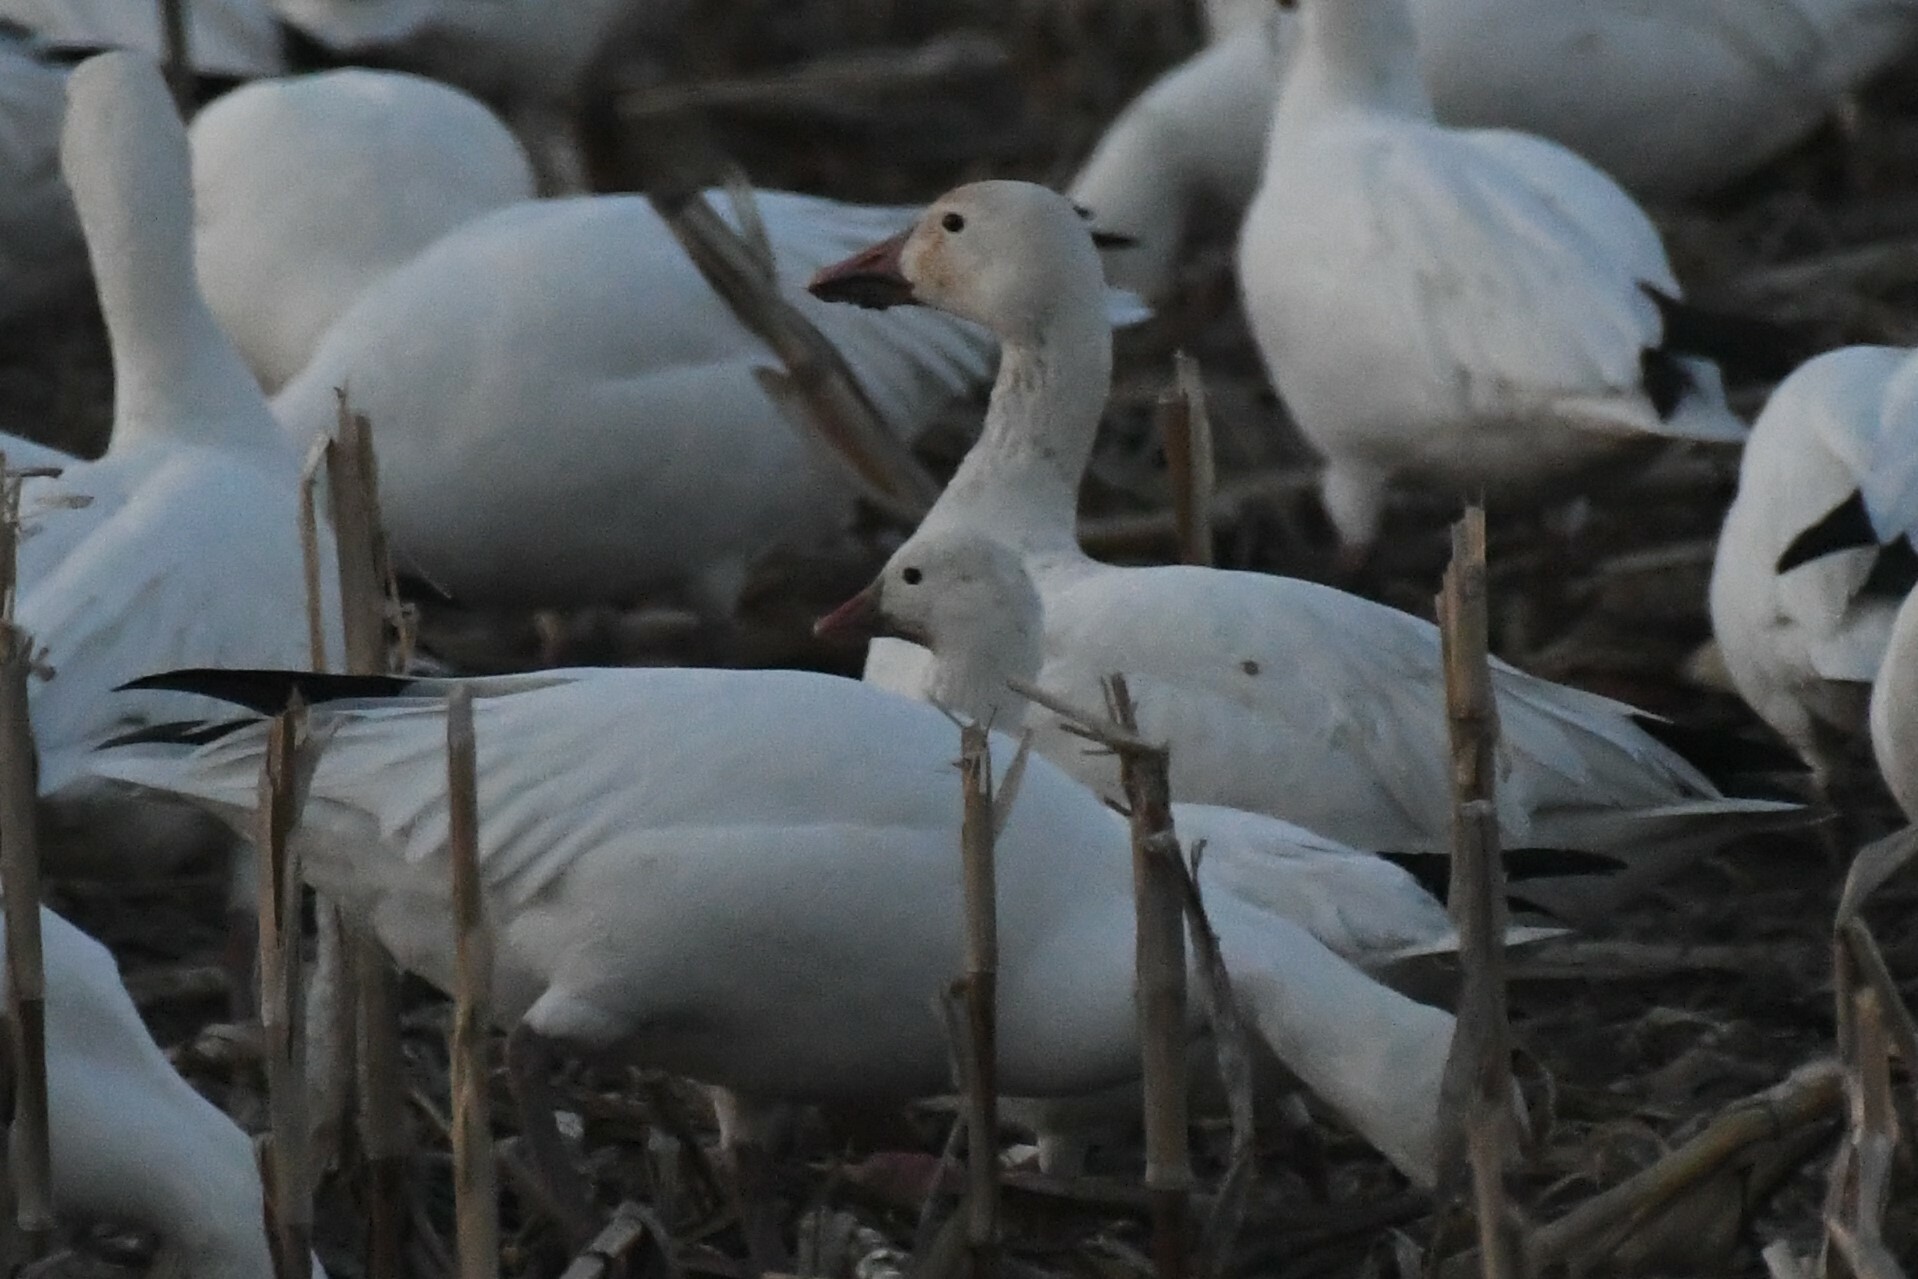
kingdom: Animalia
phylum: Chordata
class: Aves
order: Anseriformes
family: Anatidae
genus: Anser
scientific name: Anser rossii
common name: Ross's goose
